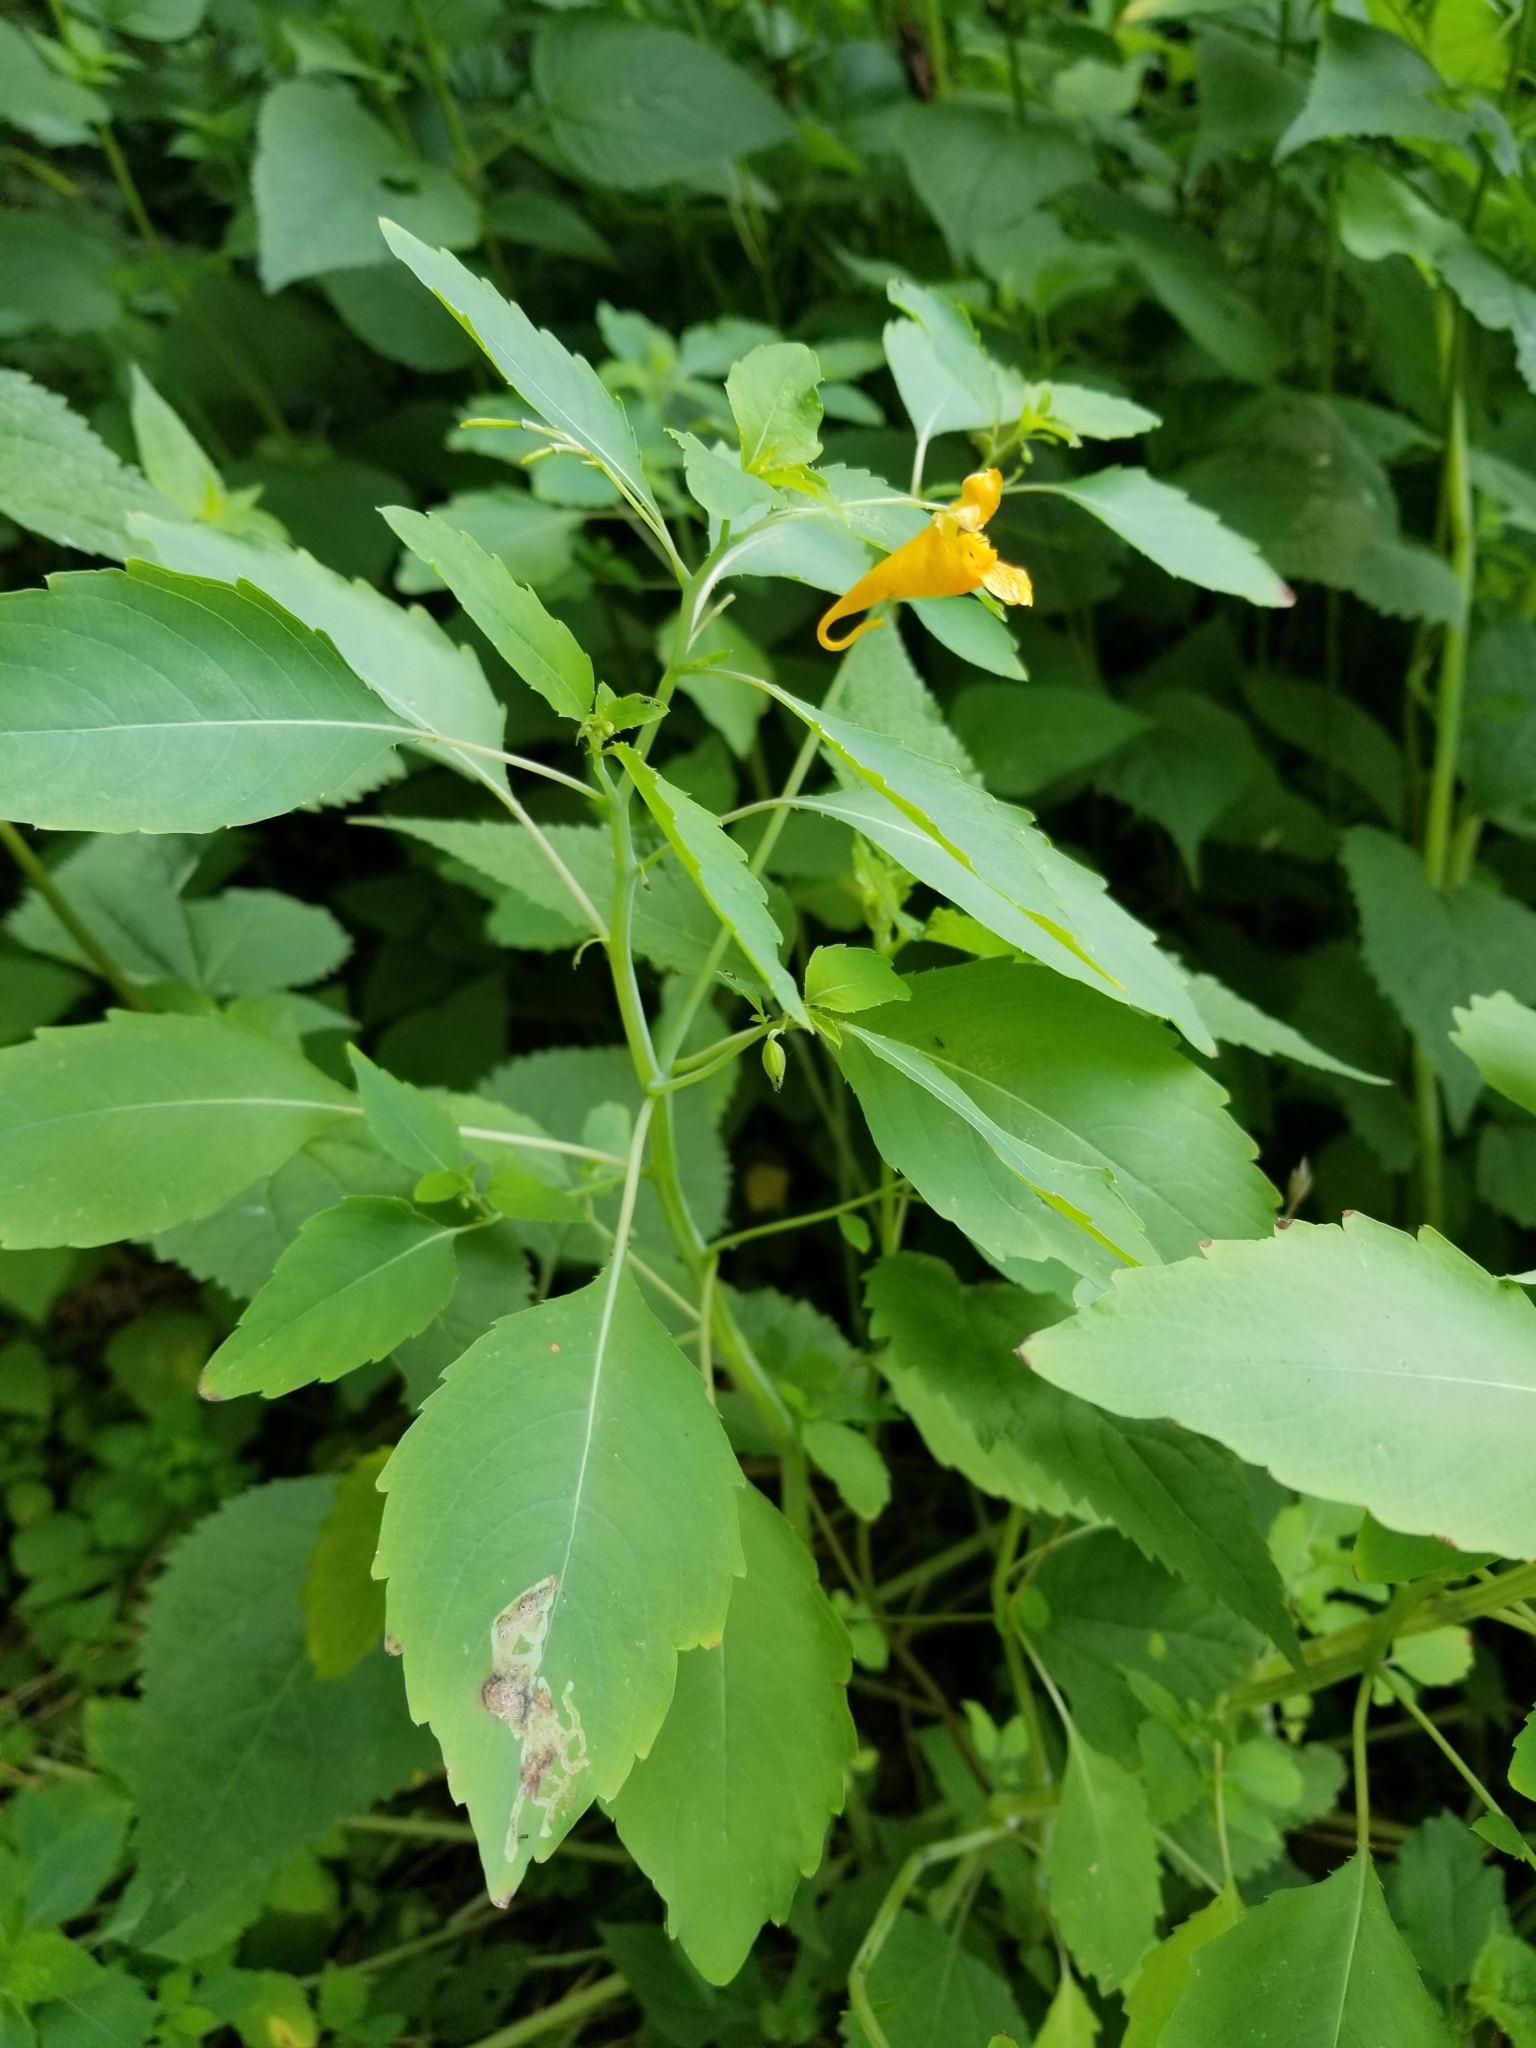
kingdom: Plantae
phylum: Tracheophyta
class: Magnoliopsida
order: Ericales
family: Balsaminaceae
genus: Impatiens
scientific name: Impatiens capensis
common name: Orange balsam
